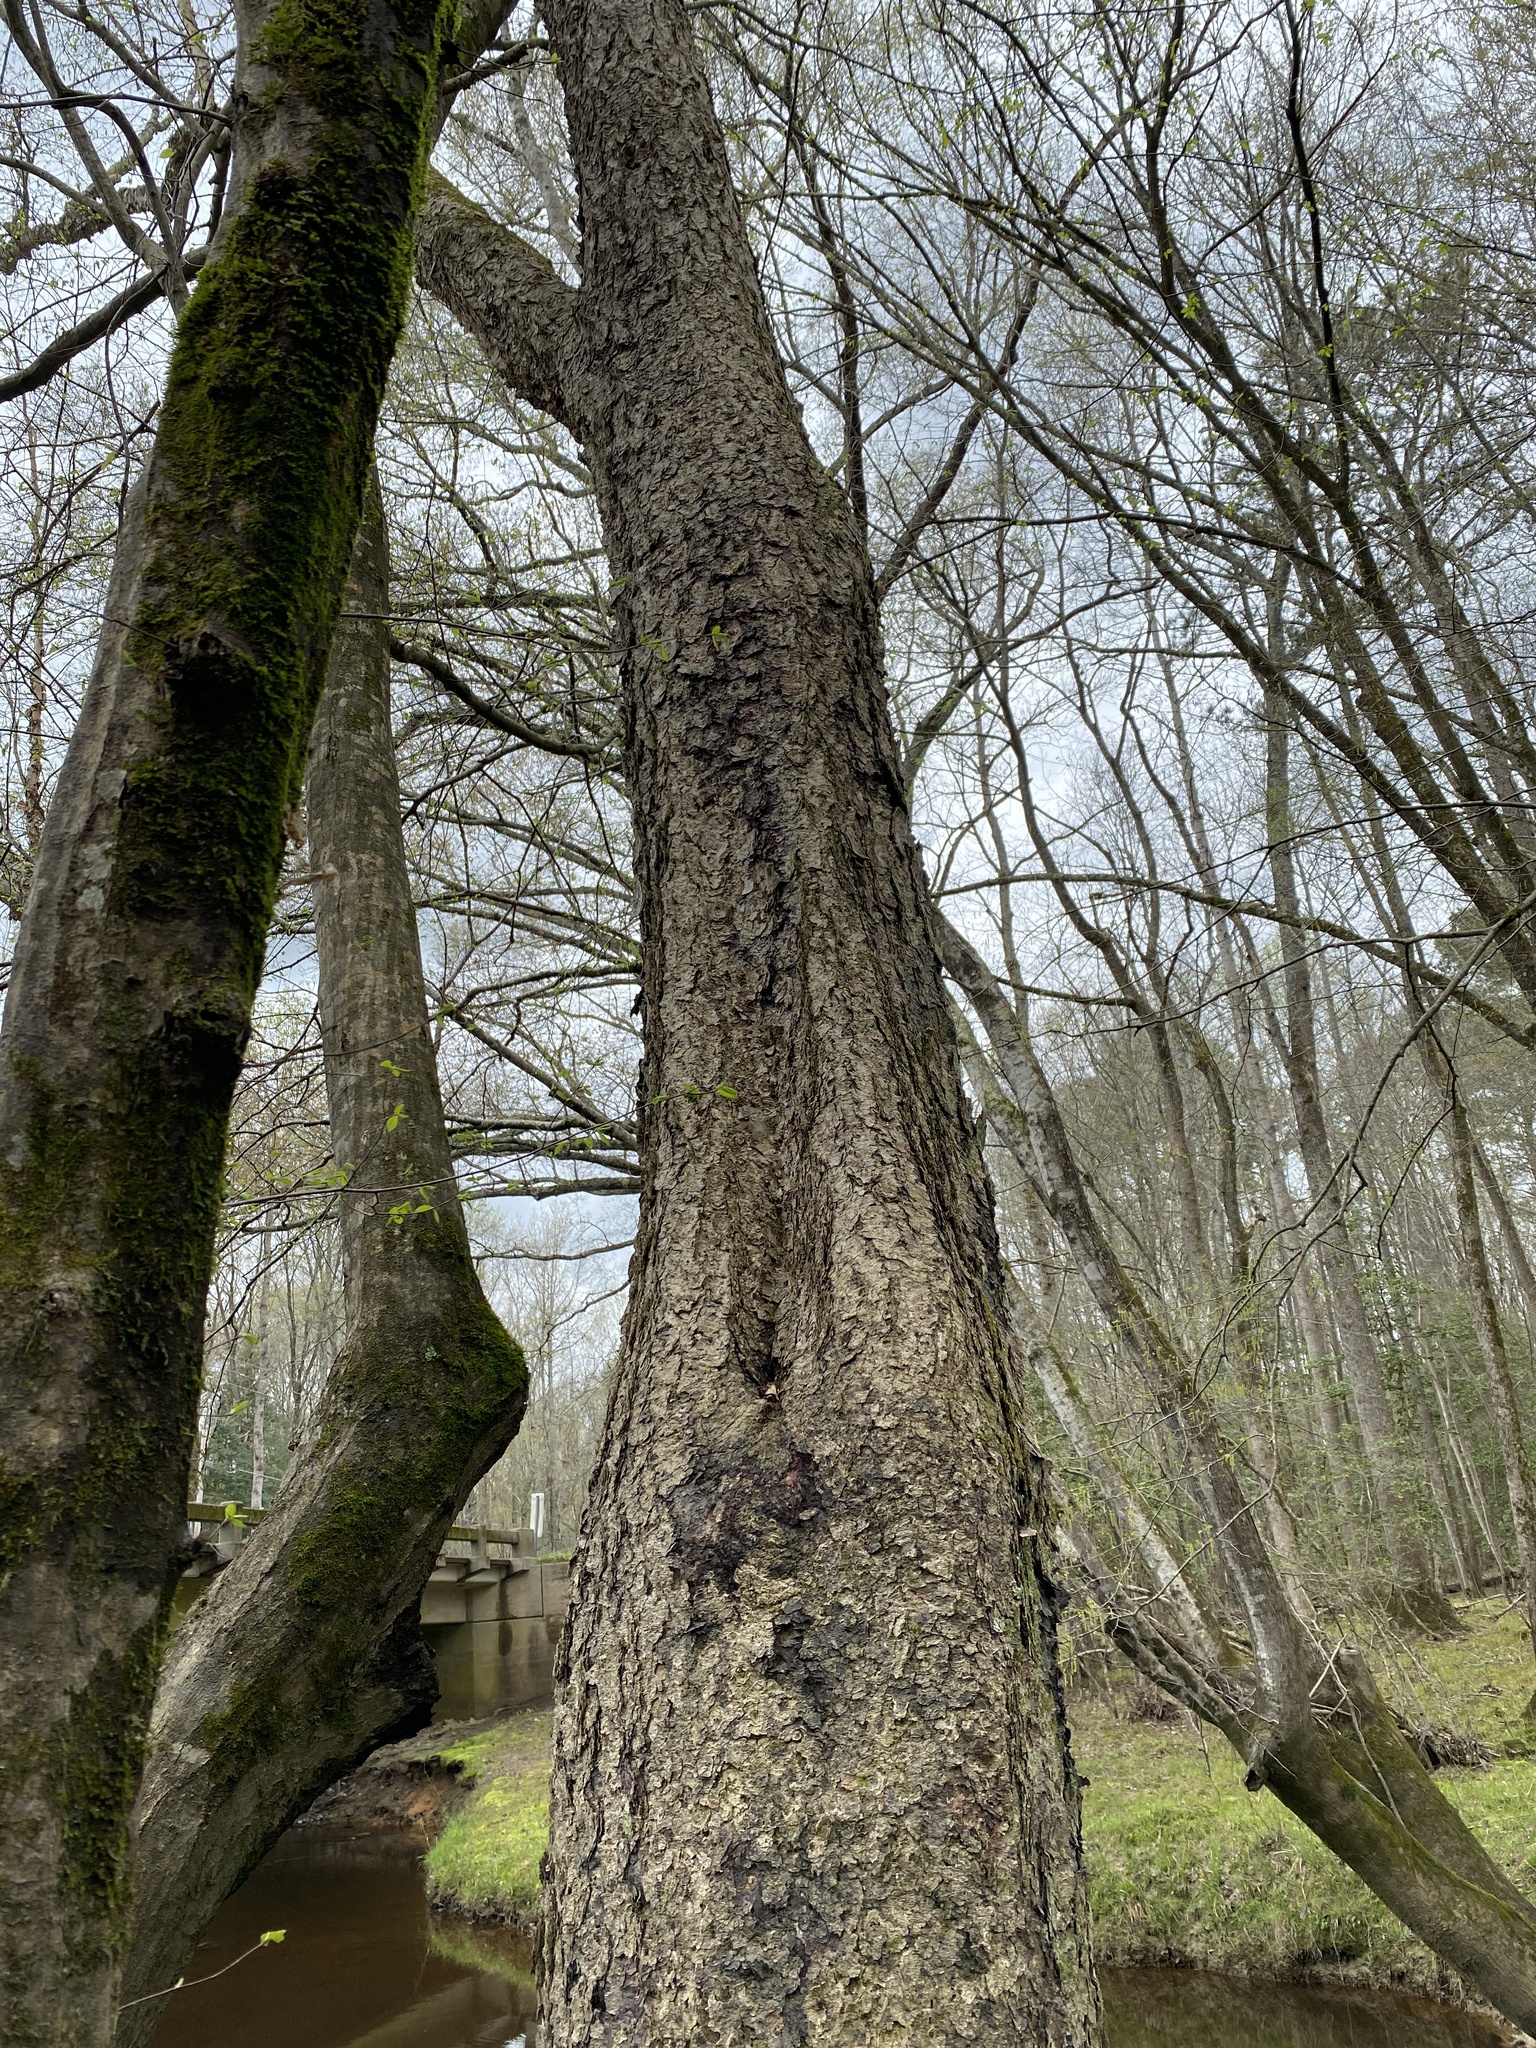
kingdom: Plantae
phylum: Tracheophyta
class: Magnoliopsida
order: Fagales
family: Betulaceae
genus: Betula
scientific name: Betula nigra
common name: Black birch
